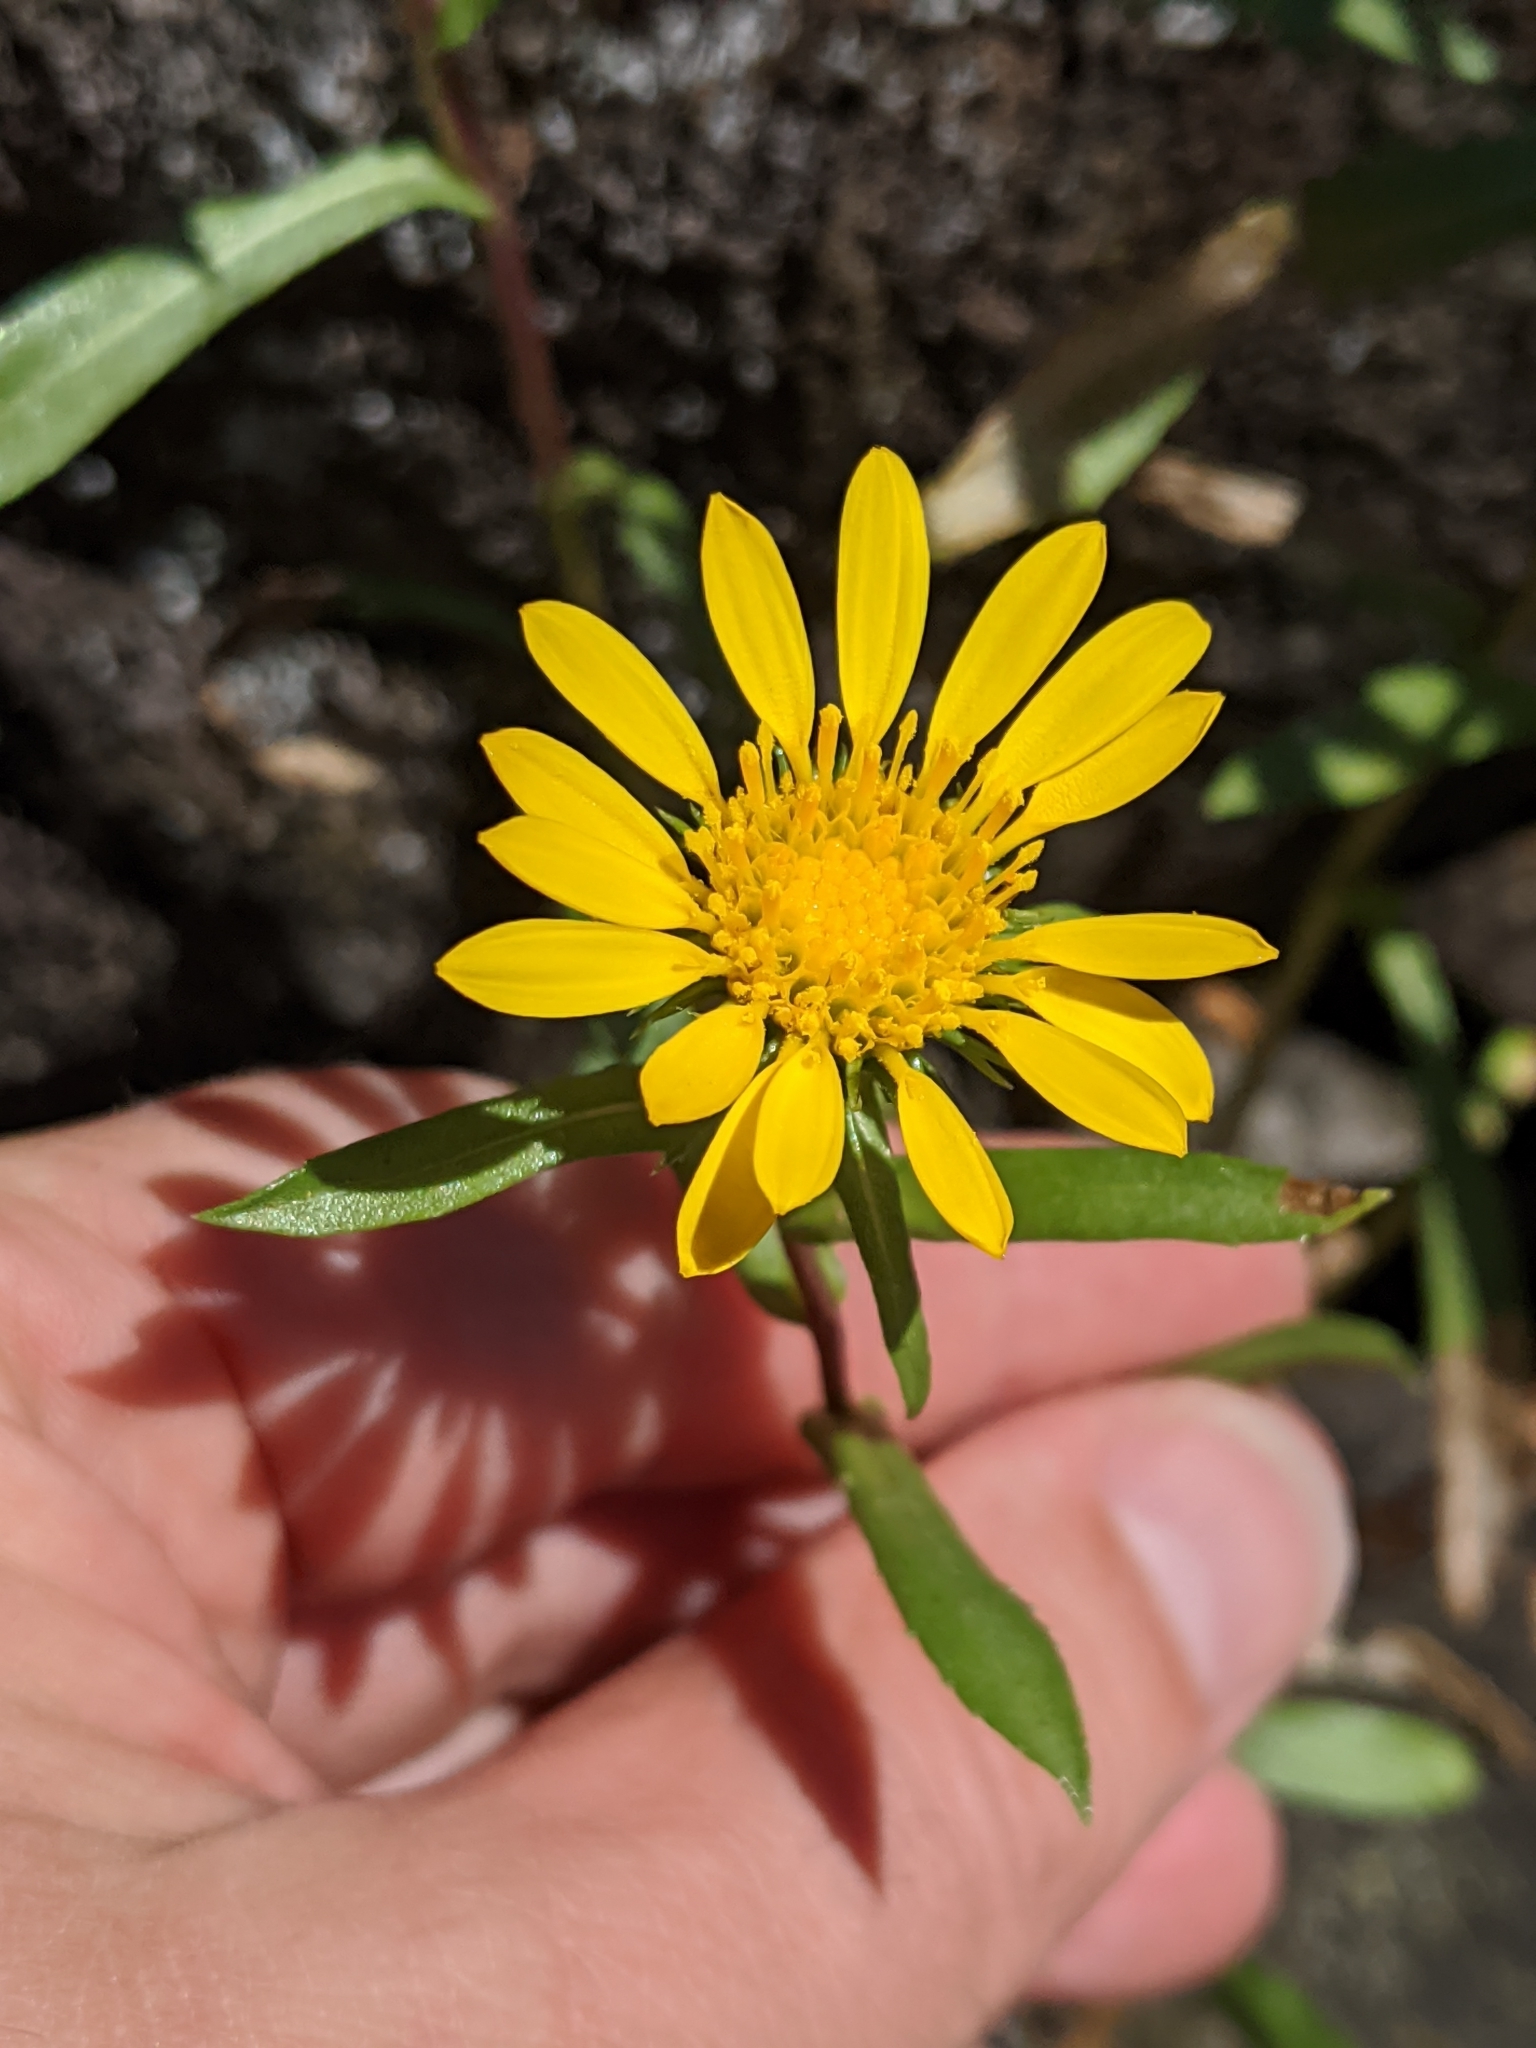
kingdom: Plantae
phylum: Tracheophyta
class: Magnoliopsida
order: Asterales
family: Asteraceae
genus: Grindelia
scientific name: Grindelia hirsutula
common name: Hairy gumweed
